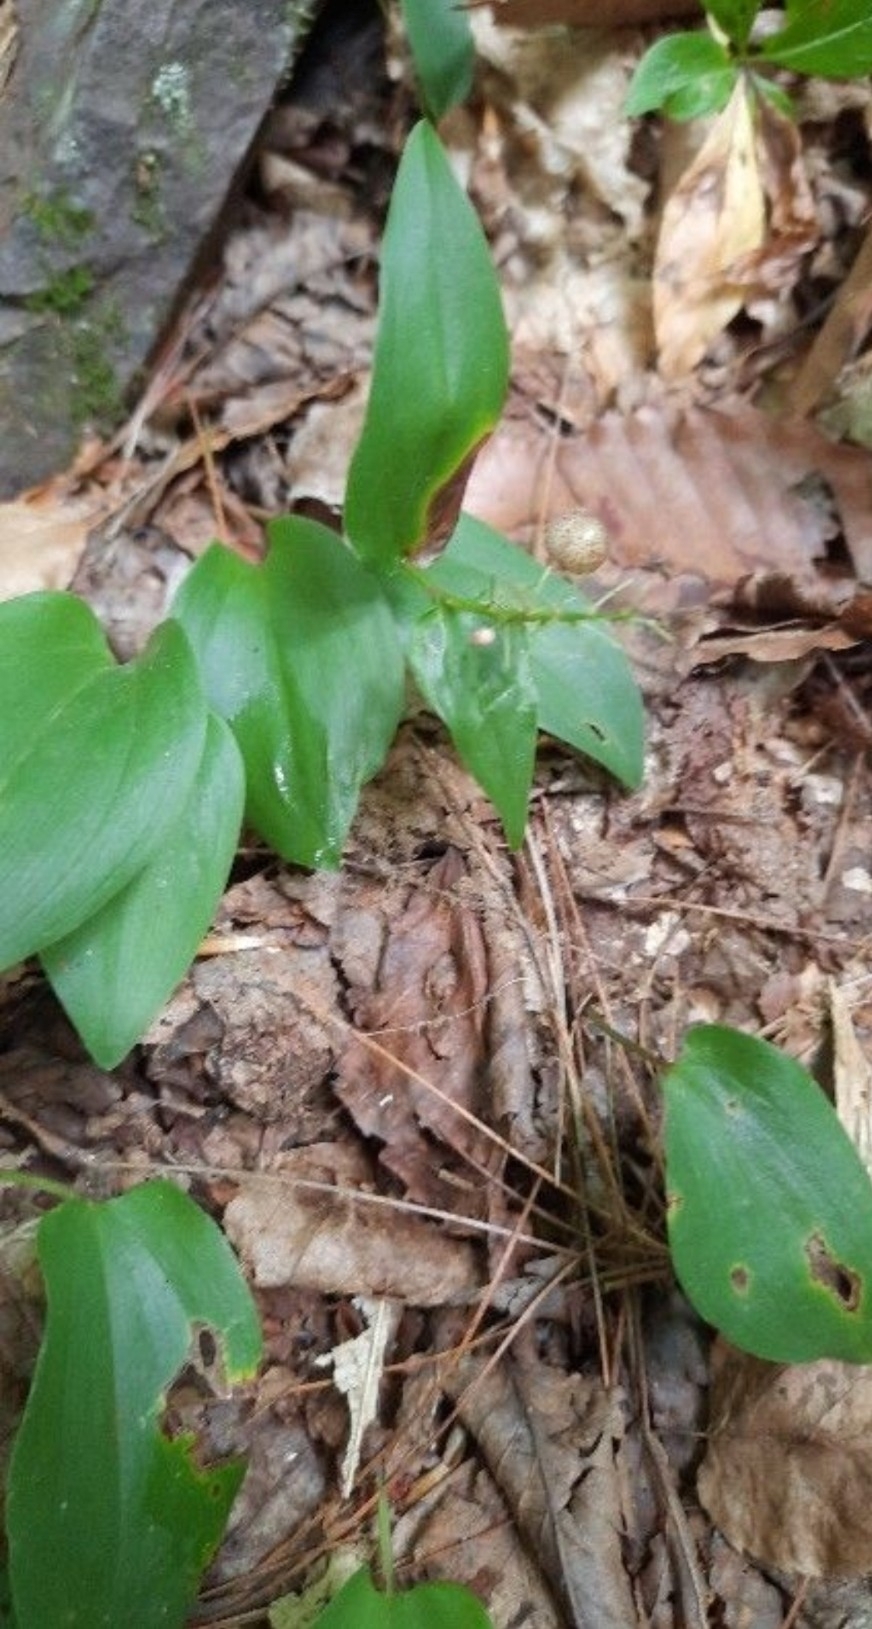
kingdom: Plantae
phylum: Tracheophyta
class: Liliopsida
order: Asparagales
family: Asparagaceae
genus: Maianthemum
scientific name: Maianthemum canadense
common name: False lily-of-the-valley
